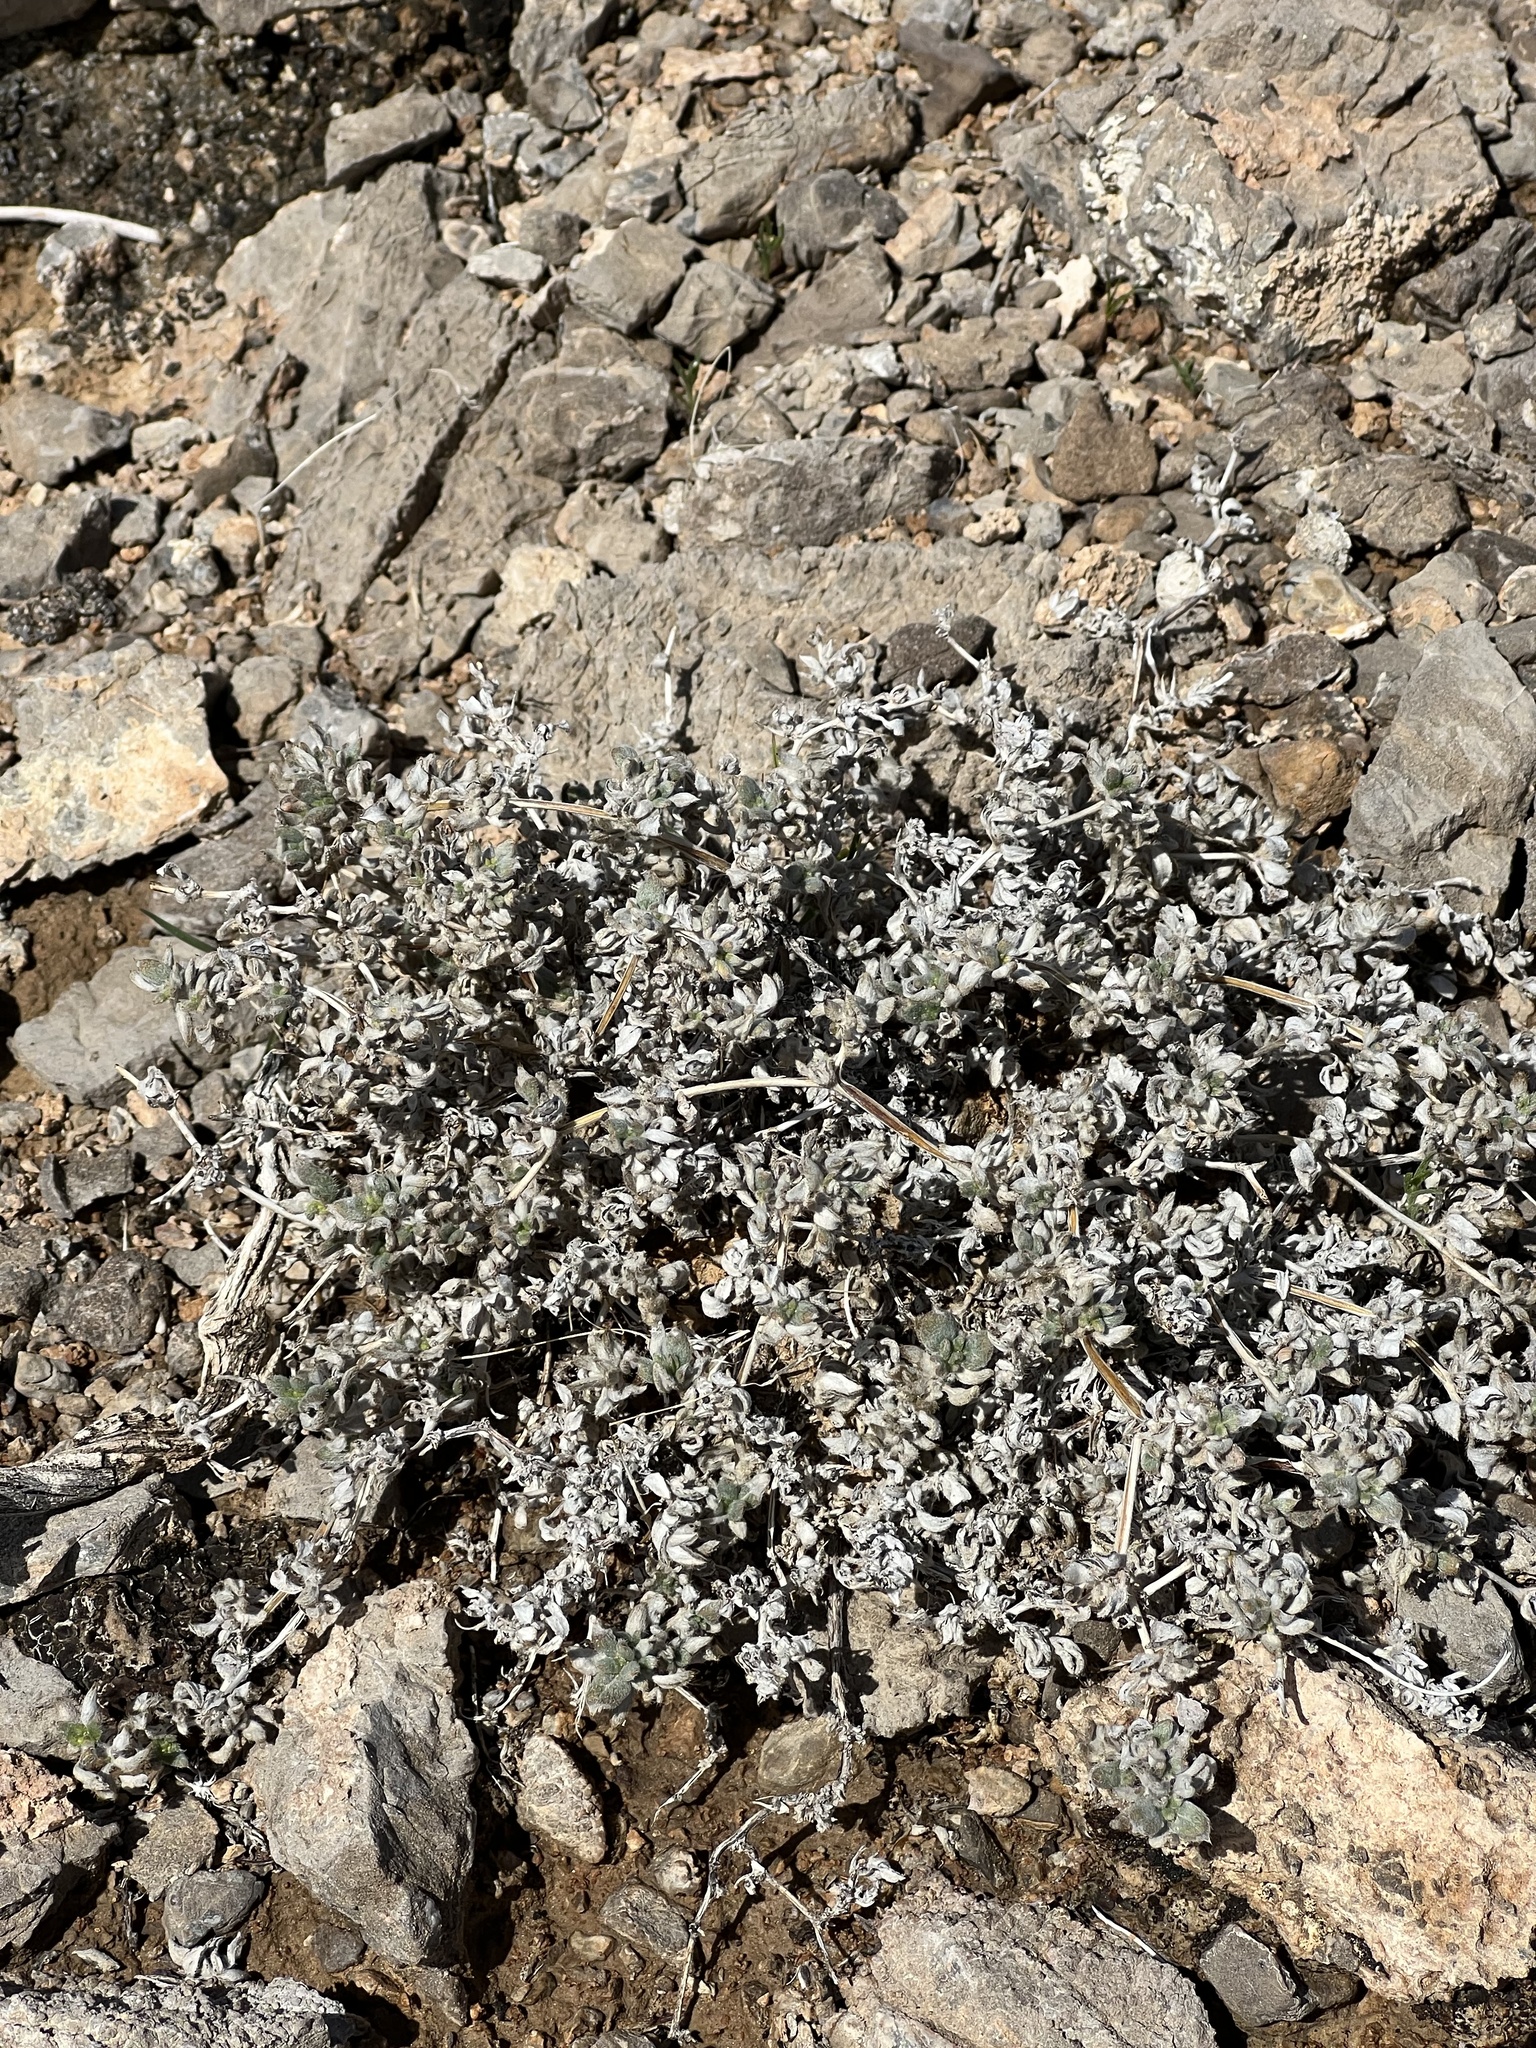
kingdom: Plantae
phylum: Tracheophyta
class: Magnoliopsida
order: Boraginales
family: Ehretiaceae
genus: Tiquilia
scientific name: Tiquilia canescens
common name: Hairy tiquilia
